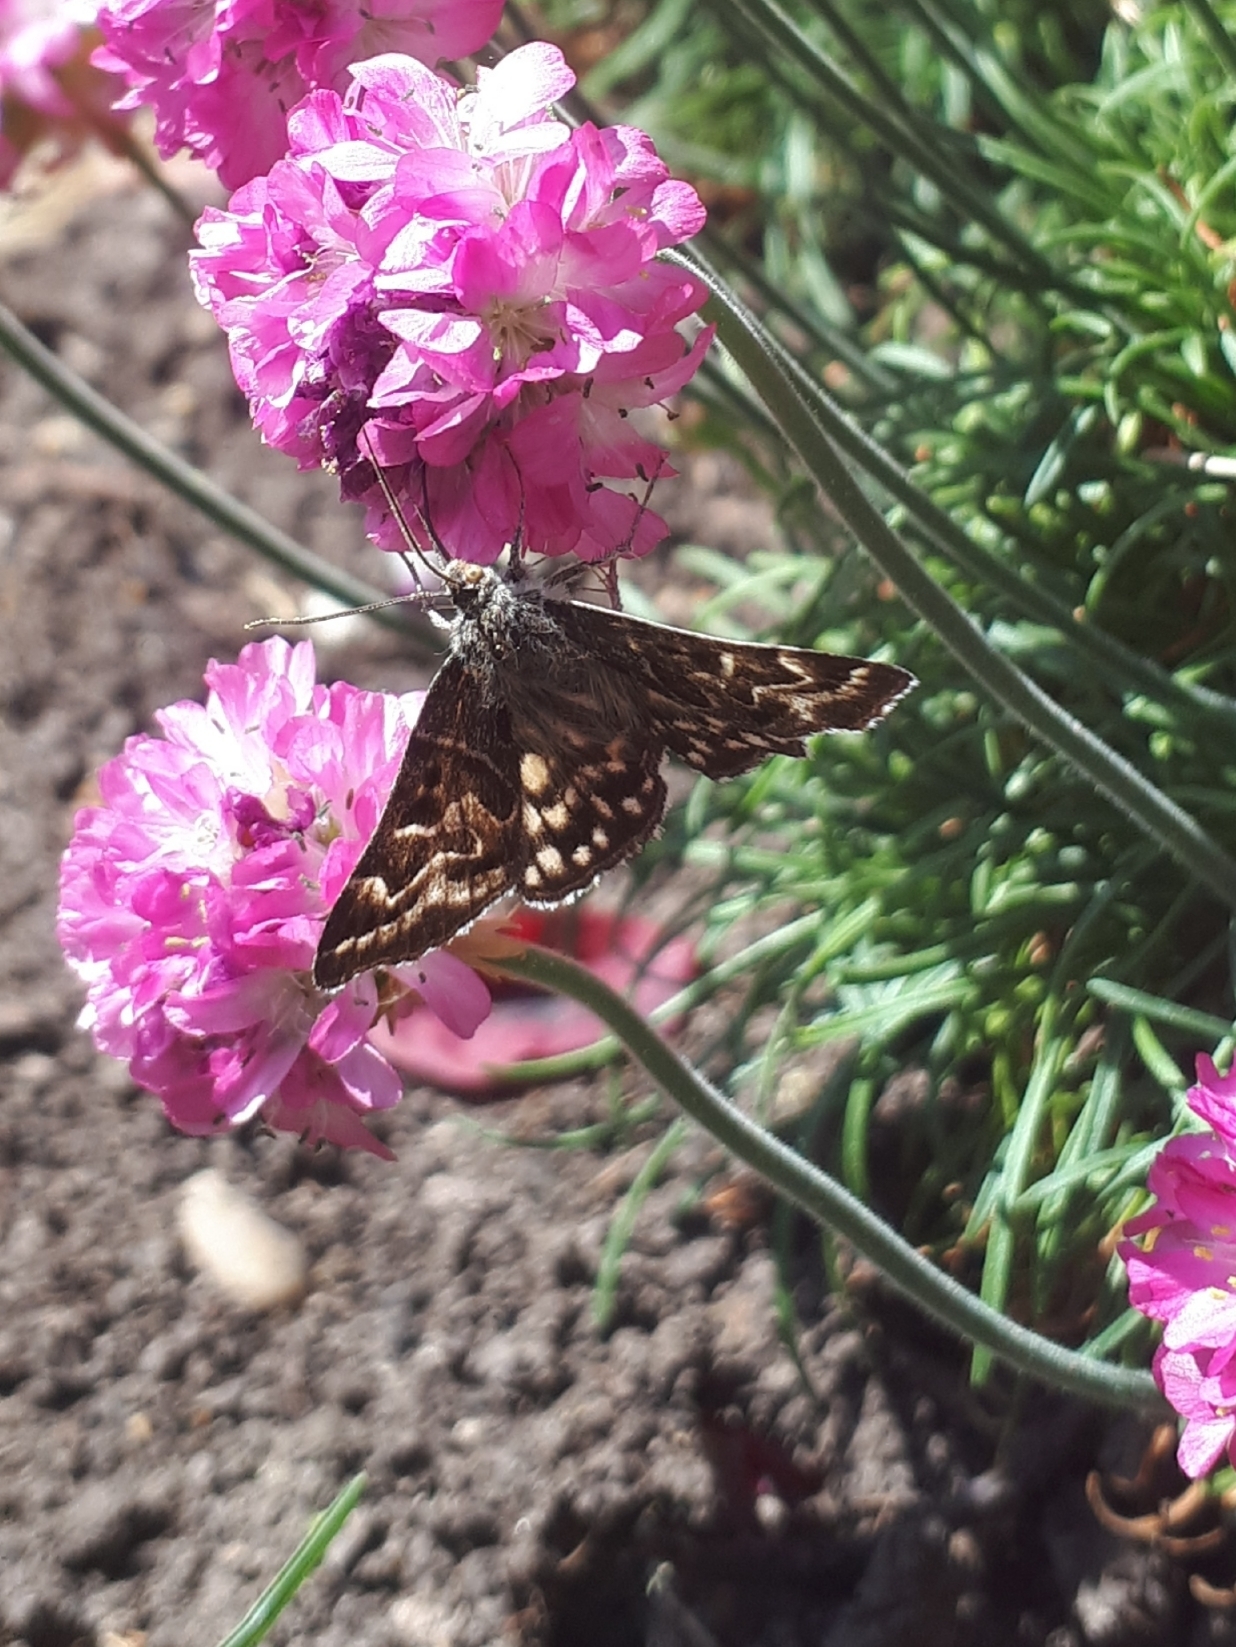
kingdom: Animalia
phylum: Arthropoda
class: Insecta
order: Lepidoptera
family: Erebidae
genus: Callistege
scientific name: Callistege mi
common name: Mother shipton
